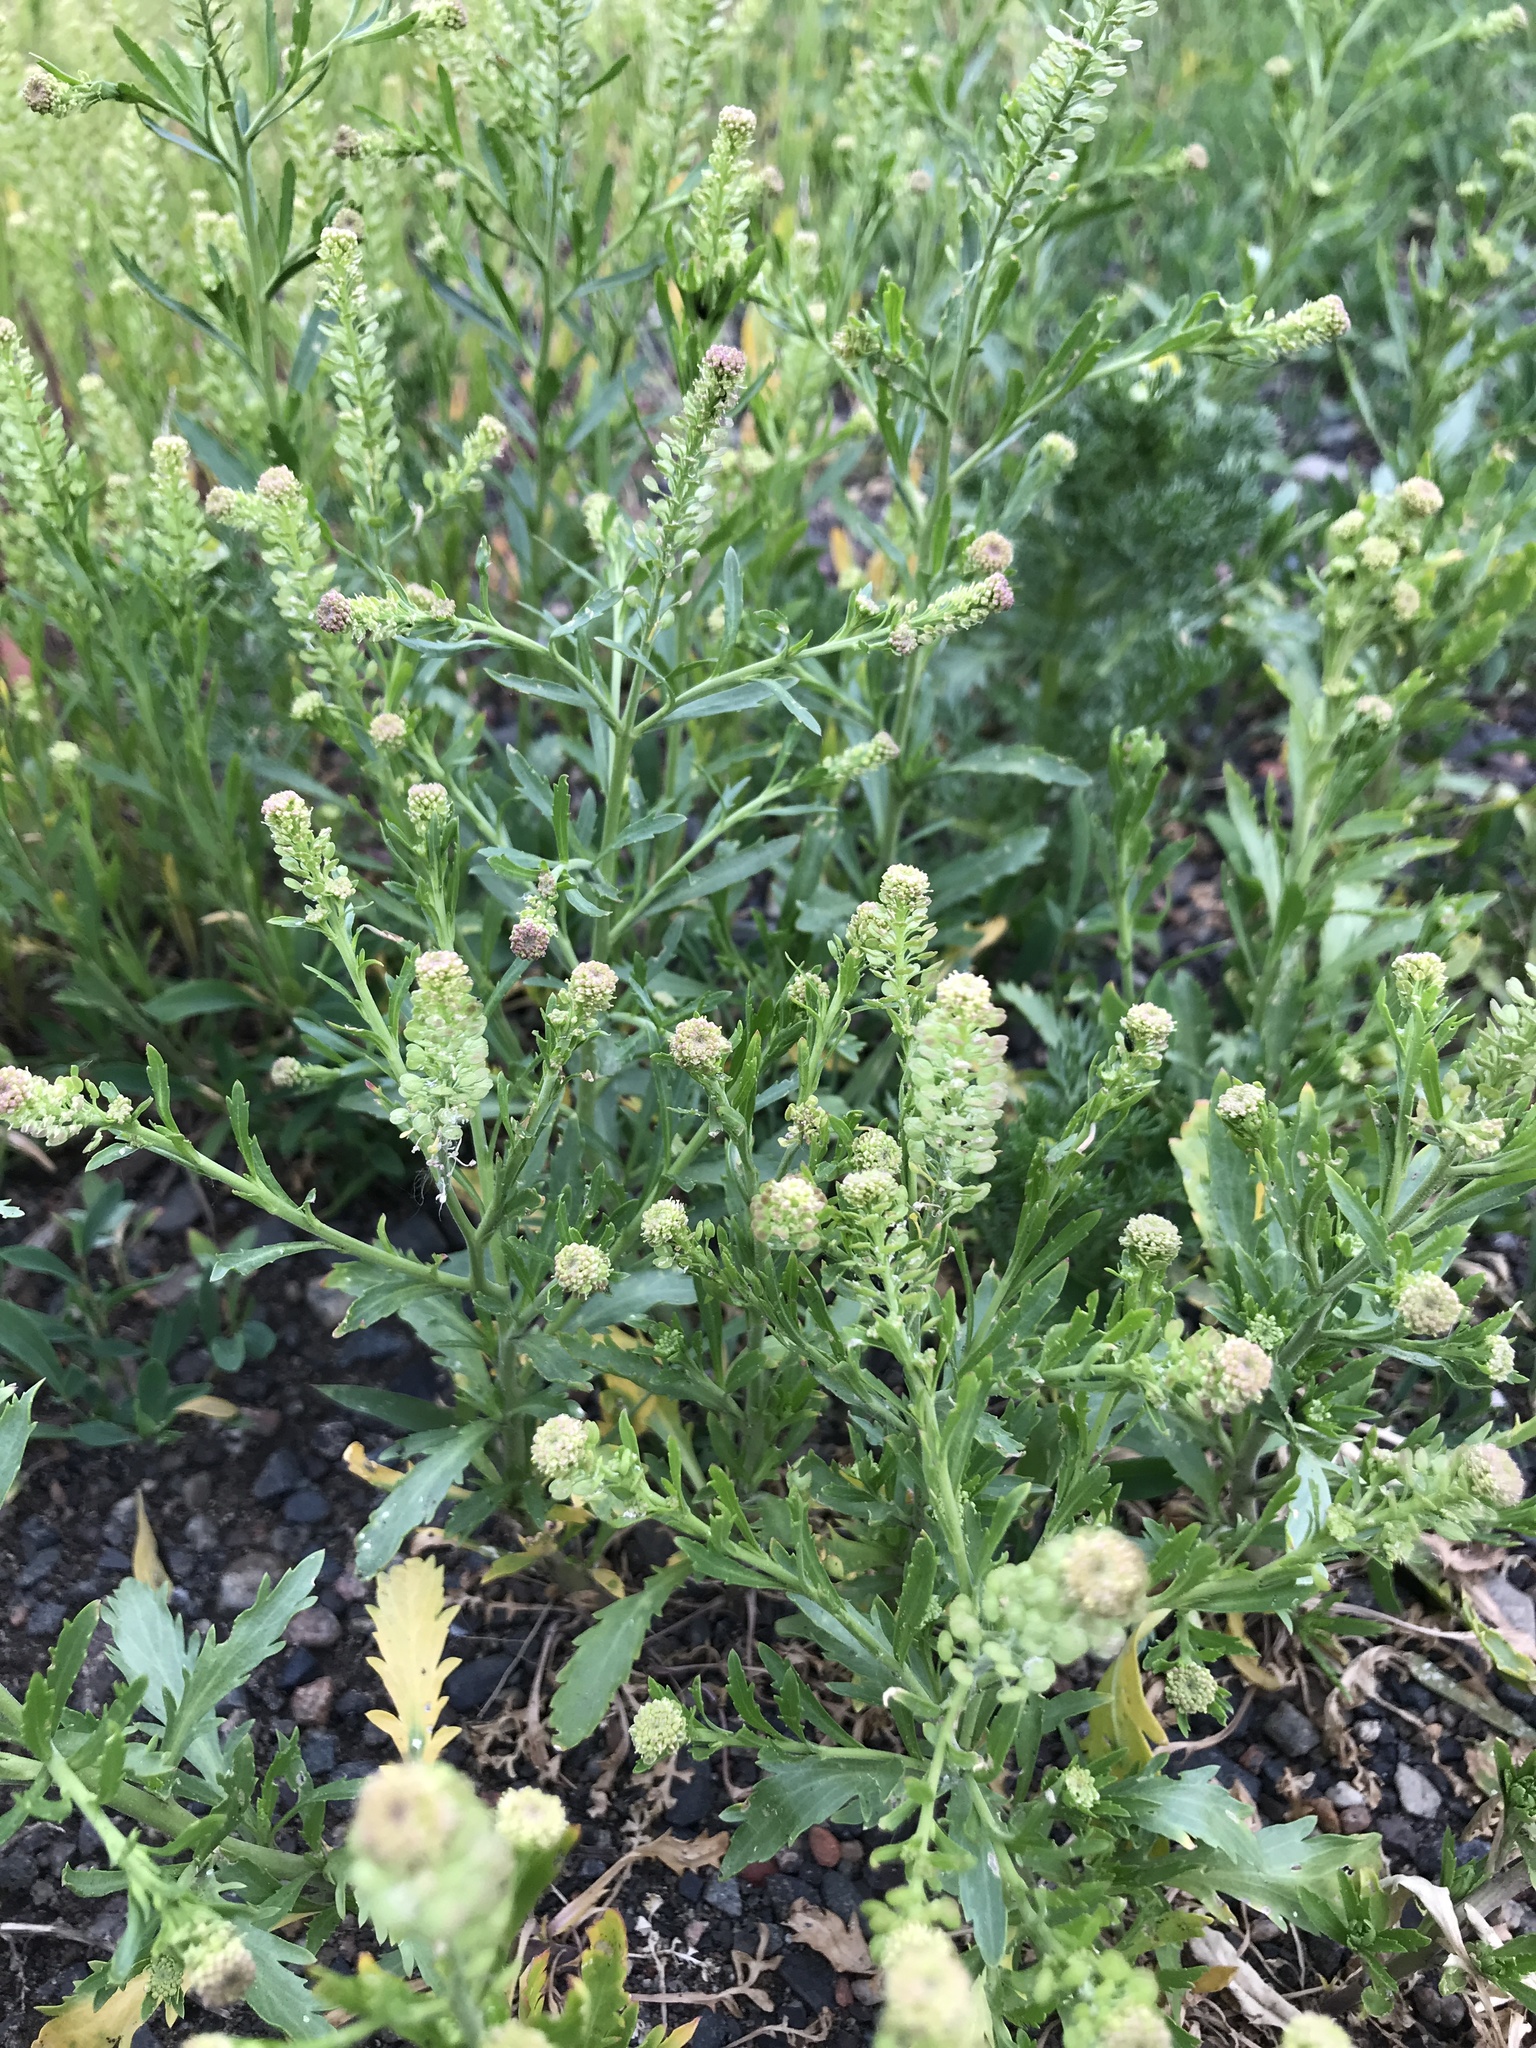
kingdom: Plantae
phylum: Tracheophyta
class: Magnoliopsida
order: Brassicales
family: Brassicaceae
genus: Thlaspi
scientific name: Thlaspi arvense
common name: Field pennycress
